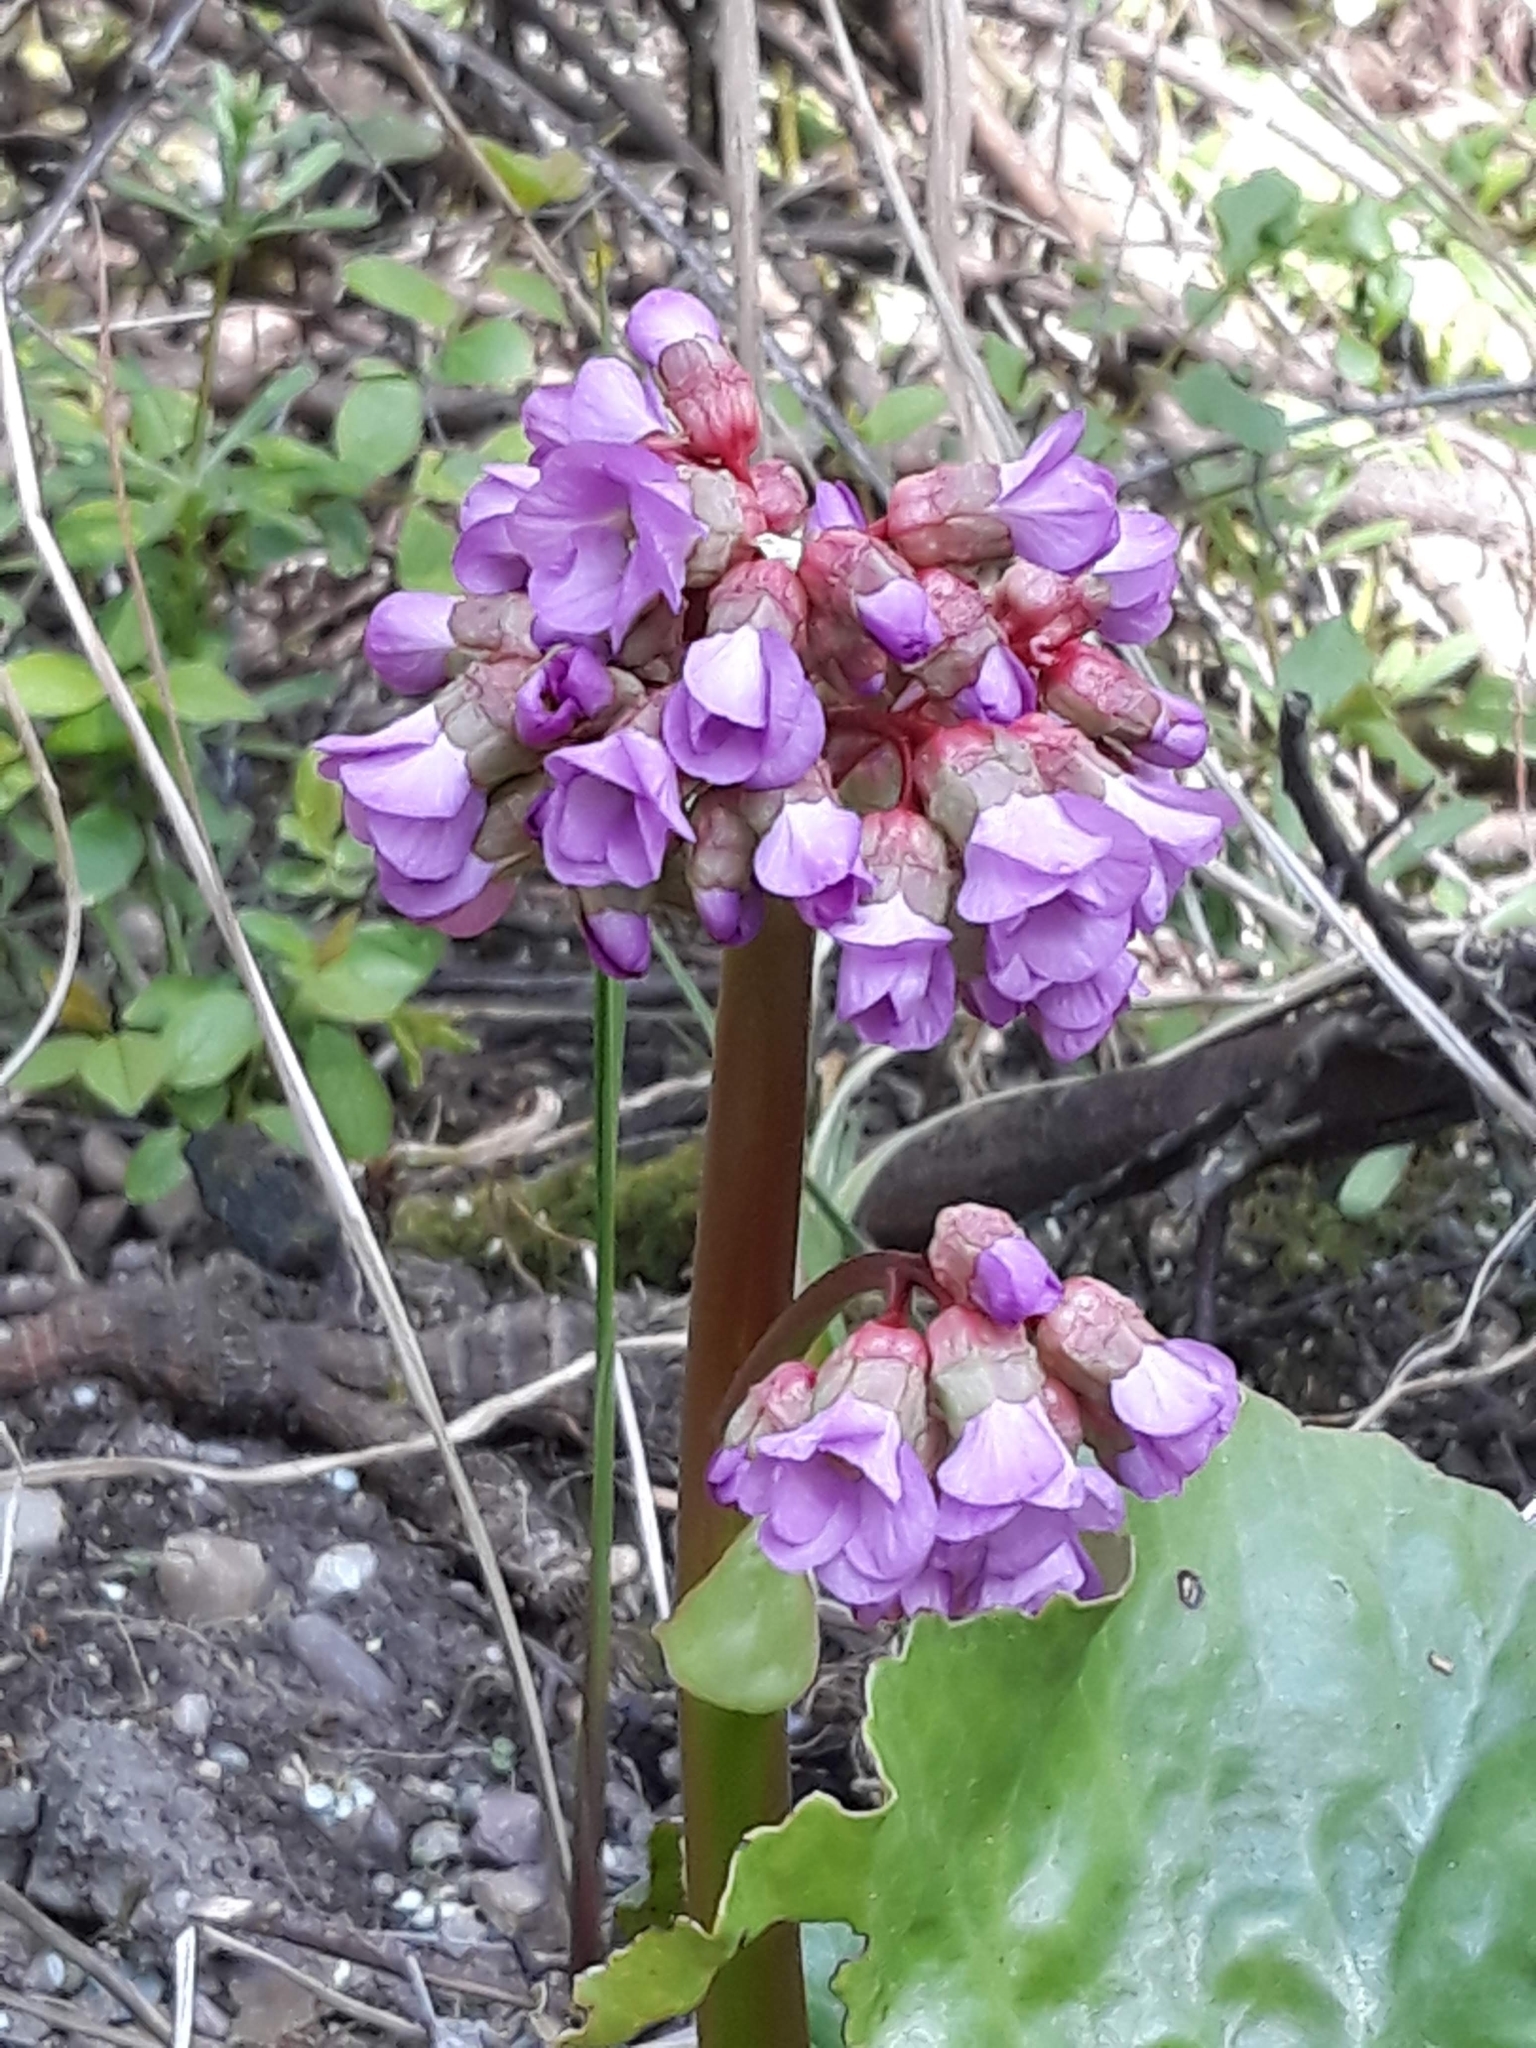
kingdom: Plantae
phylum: Tracheophyta
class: Magnoliopsida
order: Saxifragales
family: Saxifragaceae
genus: Bergenia
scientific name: Bergenia crassifolia
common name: Elephant-ears
